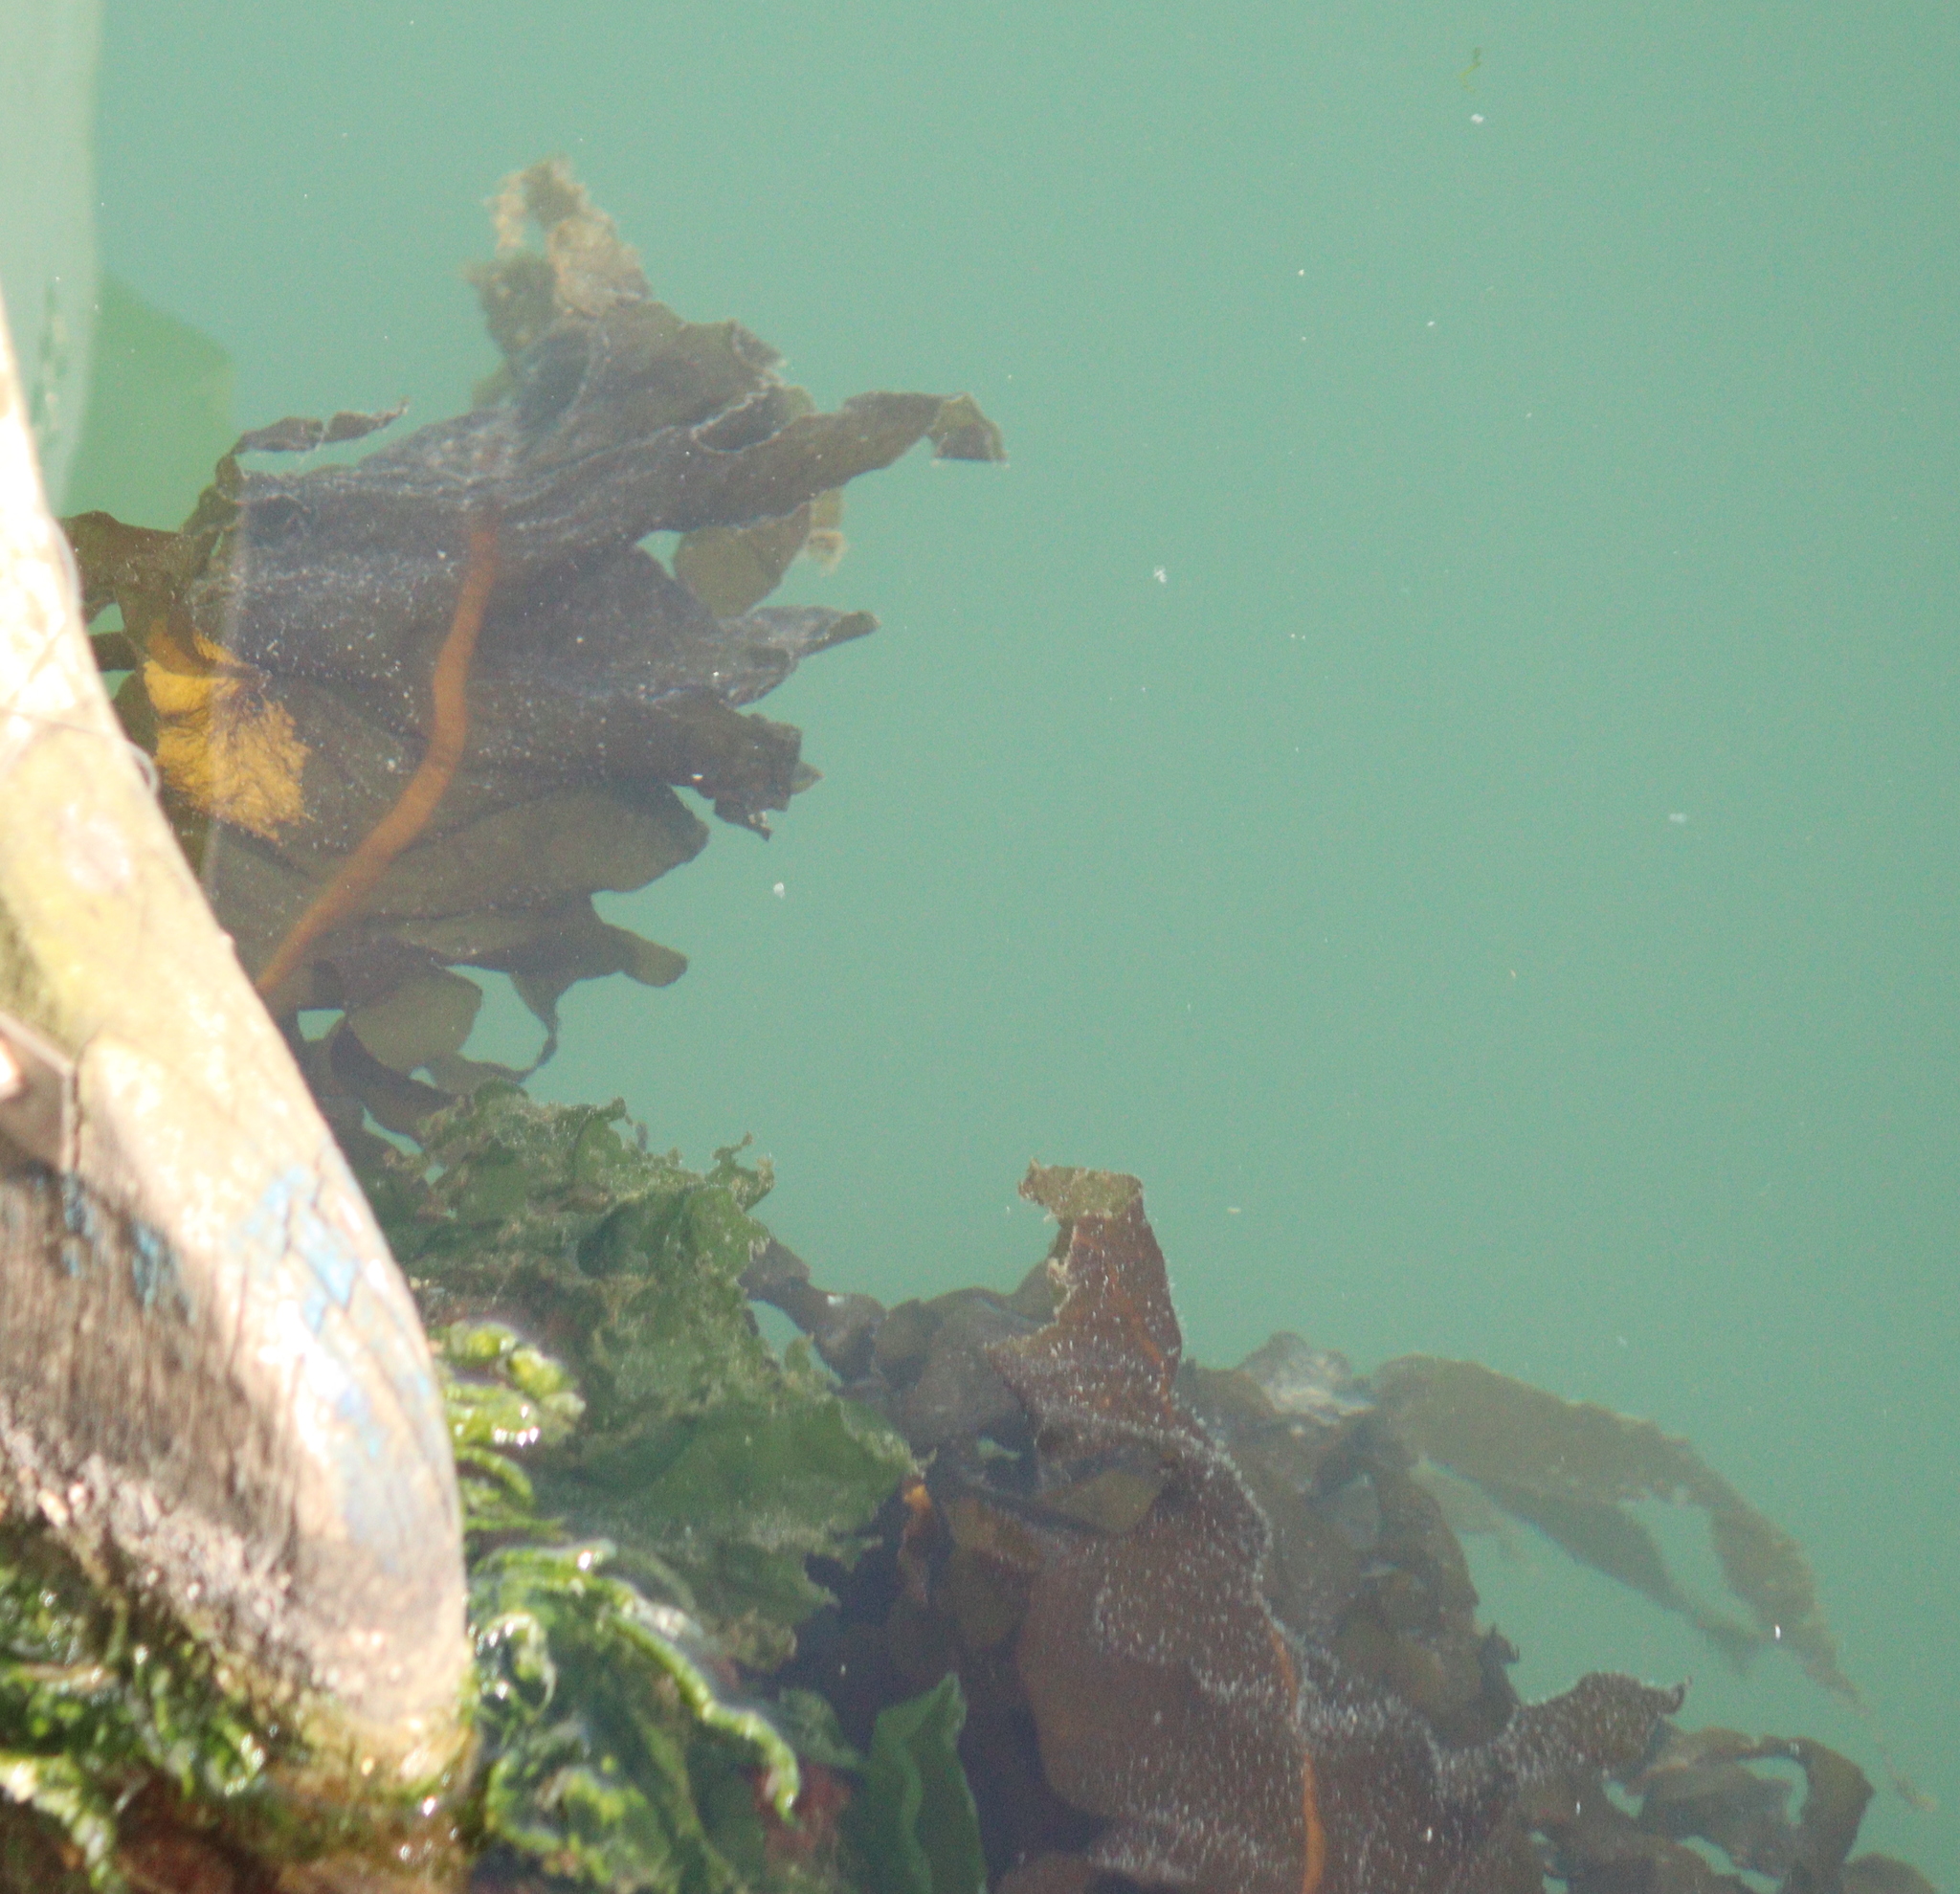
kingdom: Chromista
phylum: Ochrophyta
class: Phaeophyceae
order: Laminariales
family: Alariaceae
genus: Undaria
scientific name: Undaria pinnatifida
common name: Asian kelp
